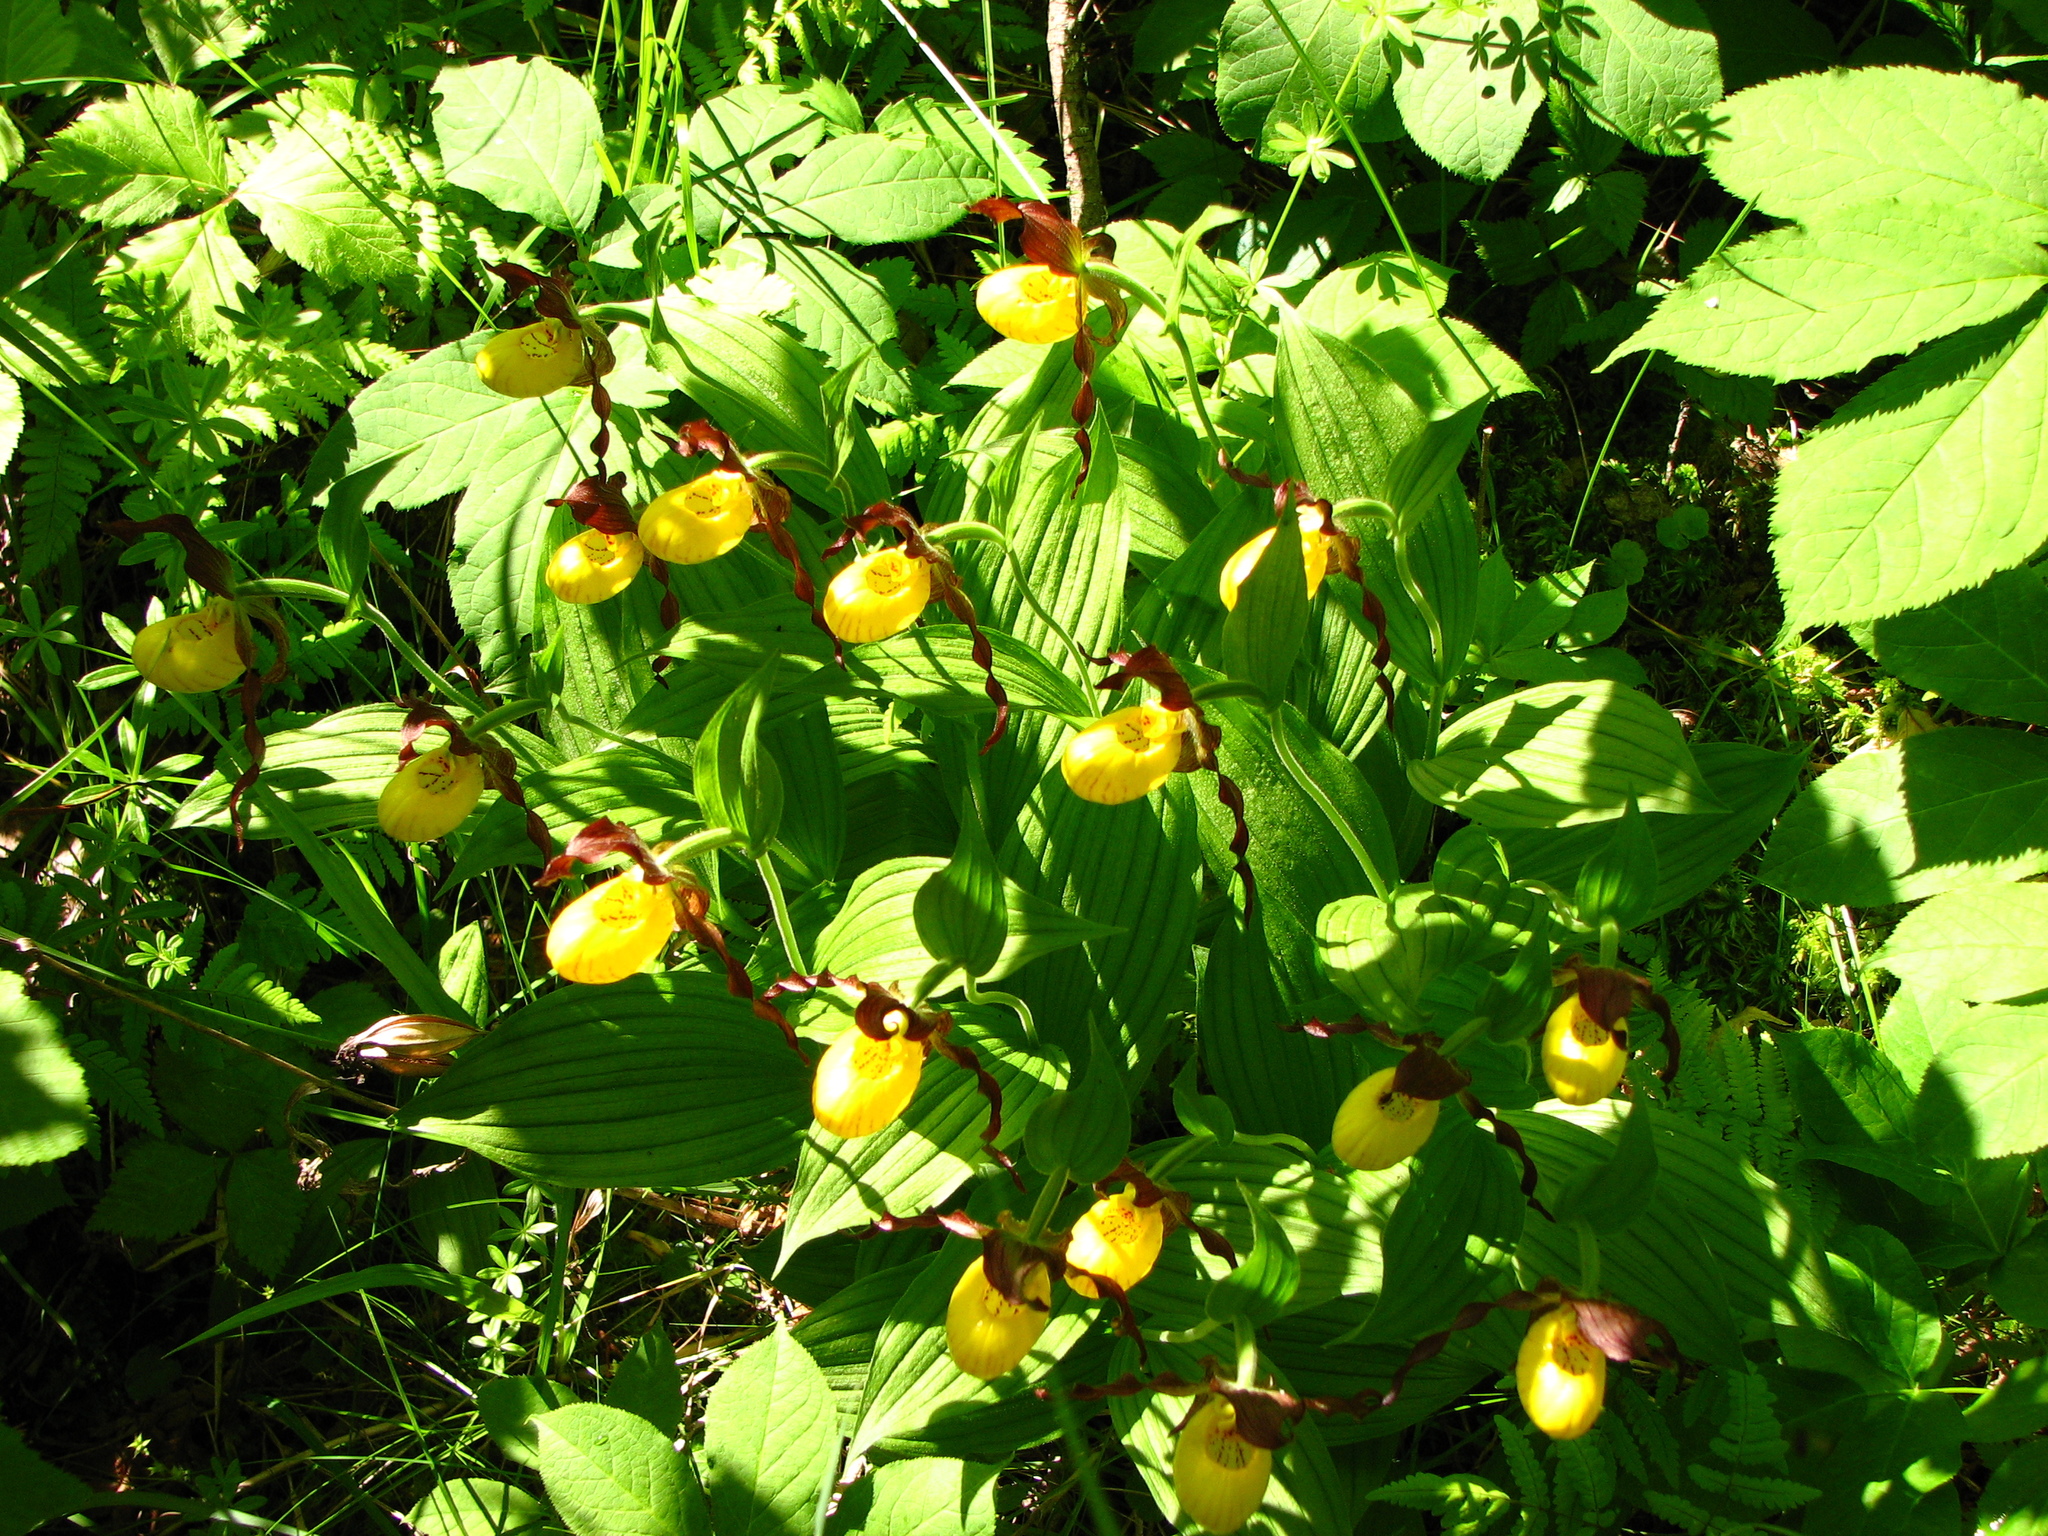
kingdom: Plantae
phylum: Tracheophyta
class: Liliopsida
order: Asparagales
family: Orchidaceae
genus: Cypripedium
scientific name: Cypripedium parviflorum
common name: American yellow lady's-slipper
